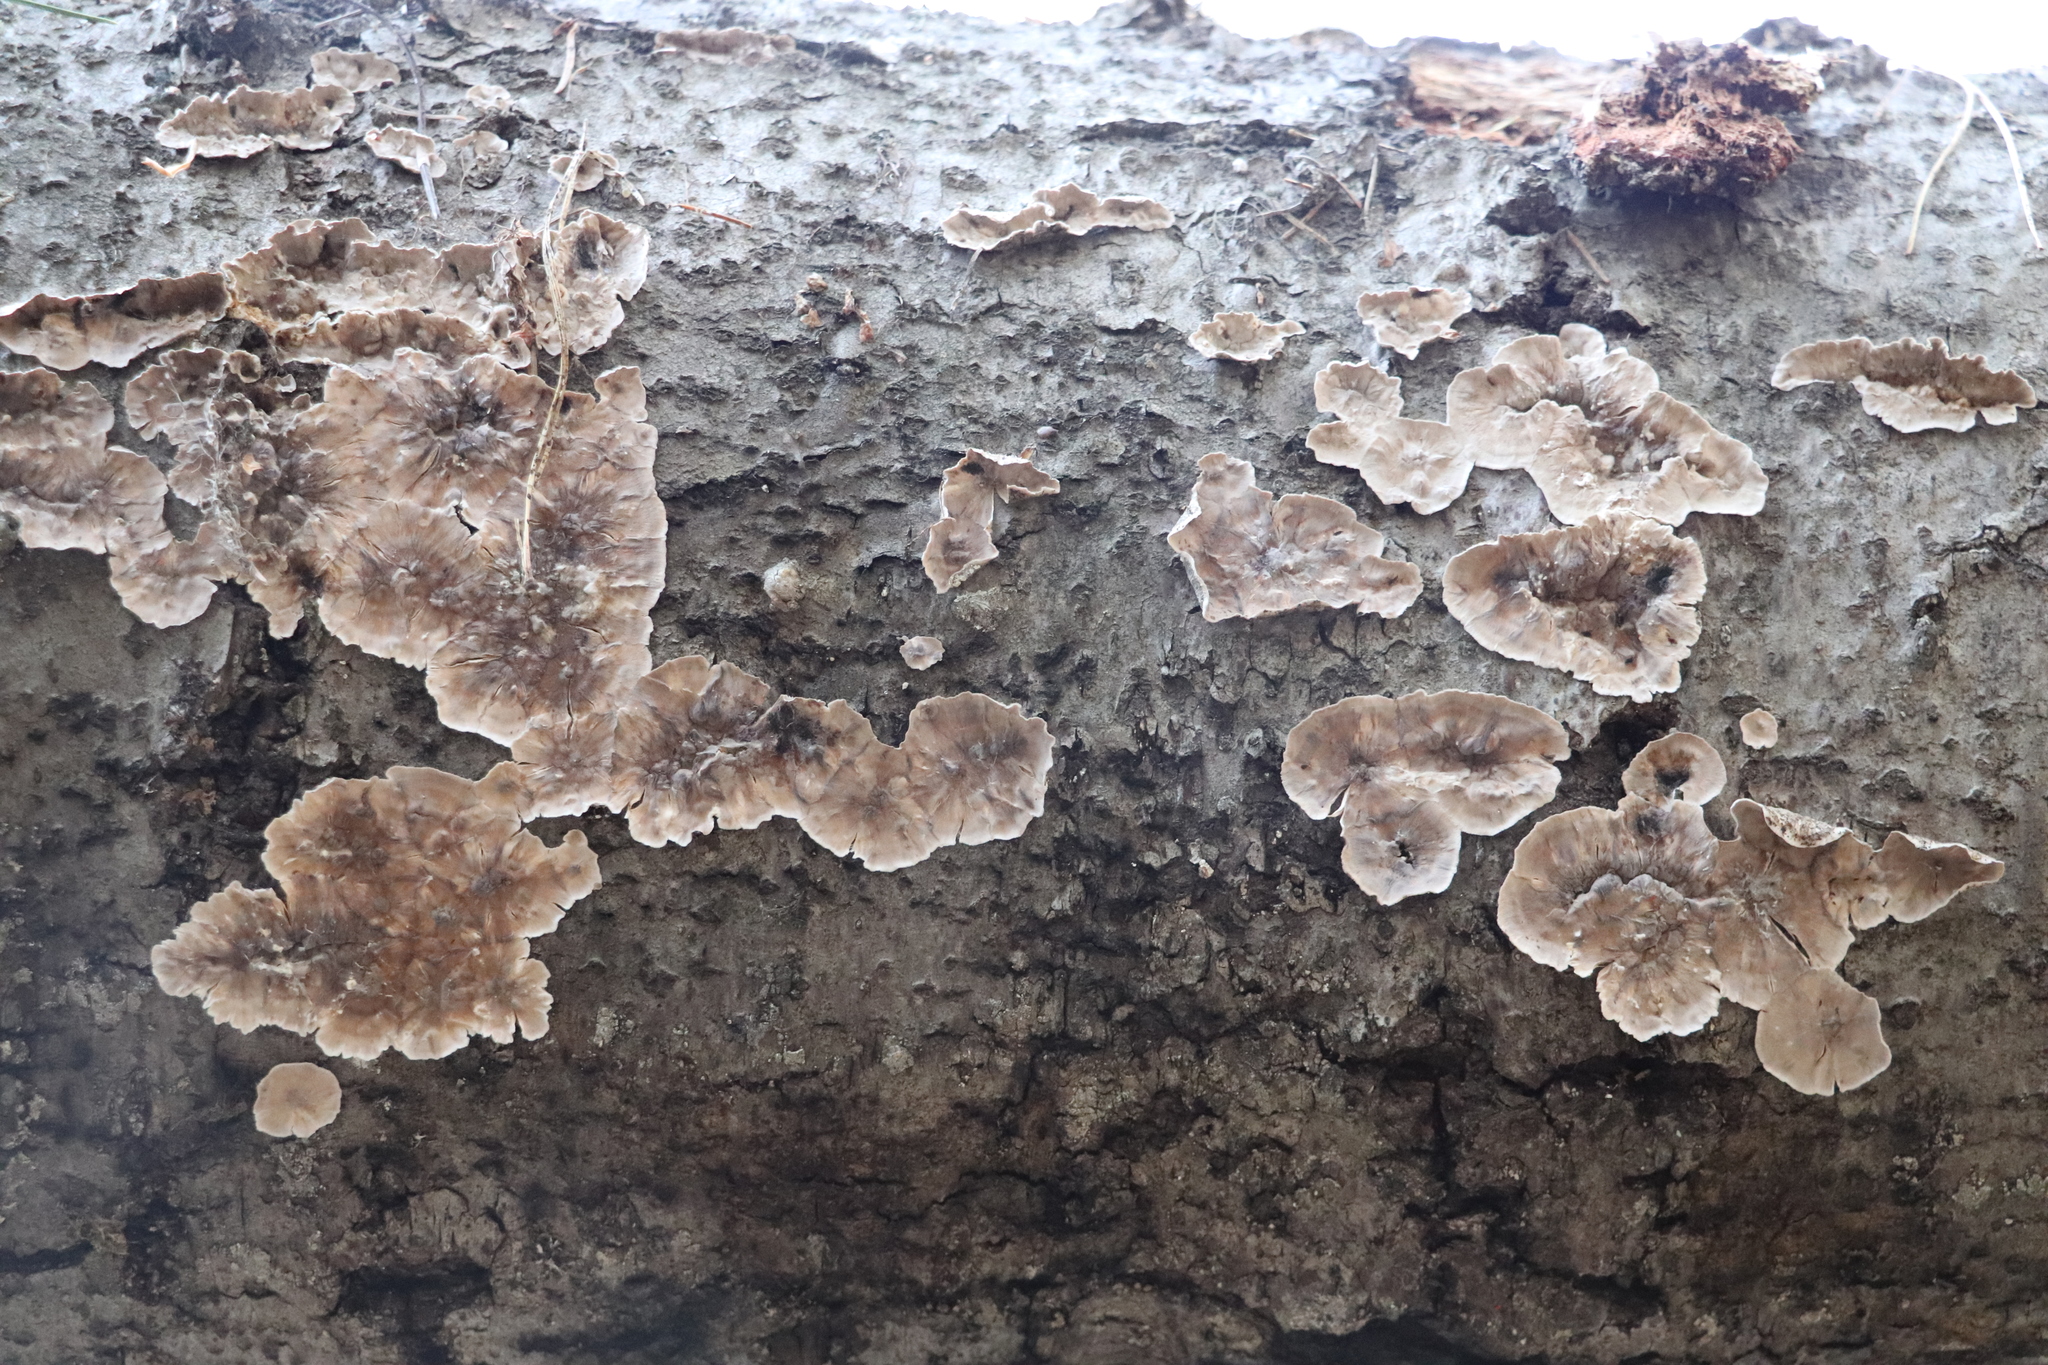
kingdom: Fungi
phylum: Basidiomycota
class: Agaricomycetes
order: Russulales
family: Stereaceae
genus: Stereum
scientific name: Stereum sanguinolentum
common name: Bleeding conifer crust
